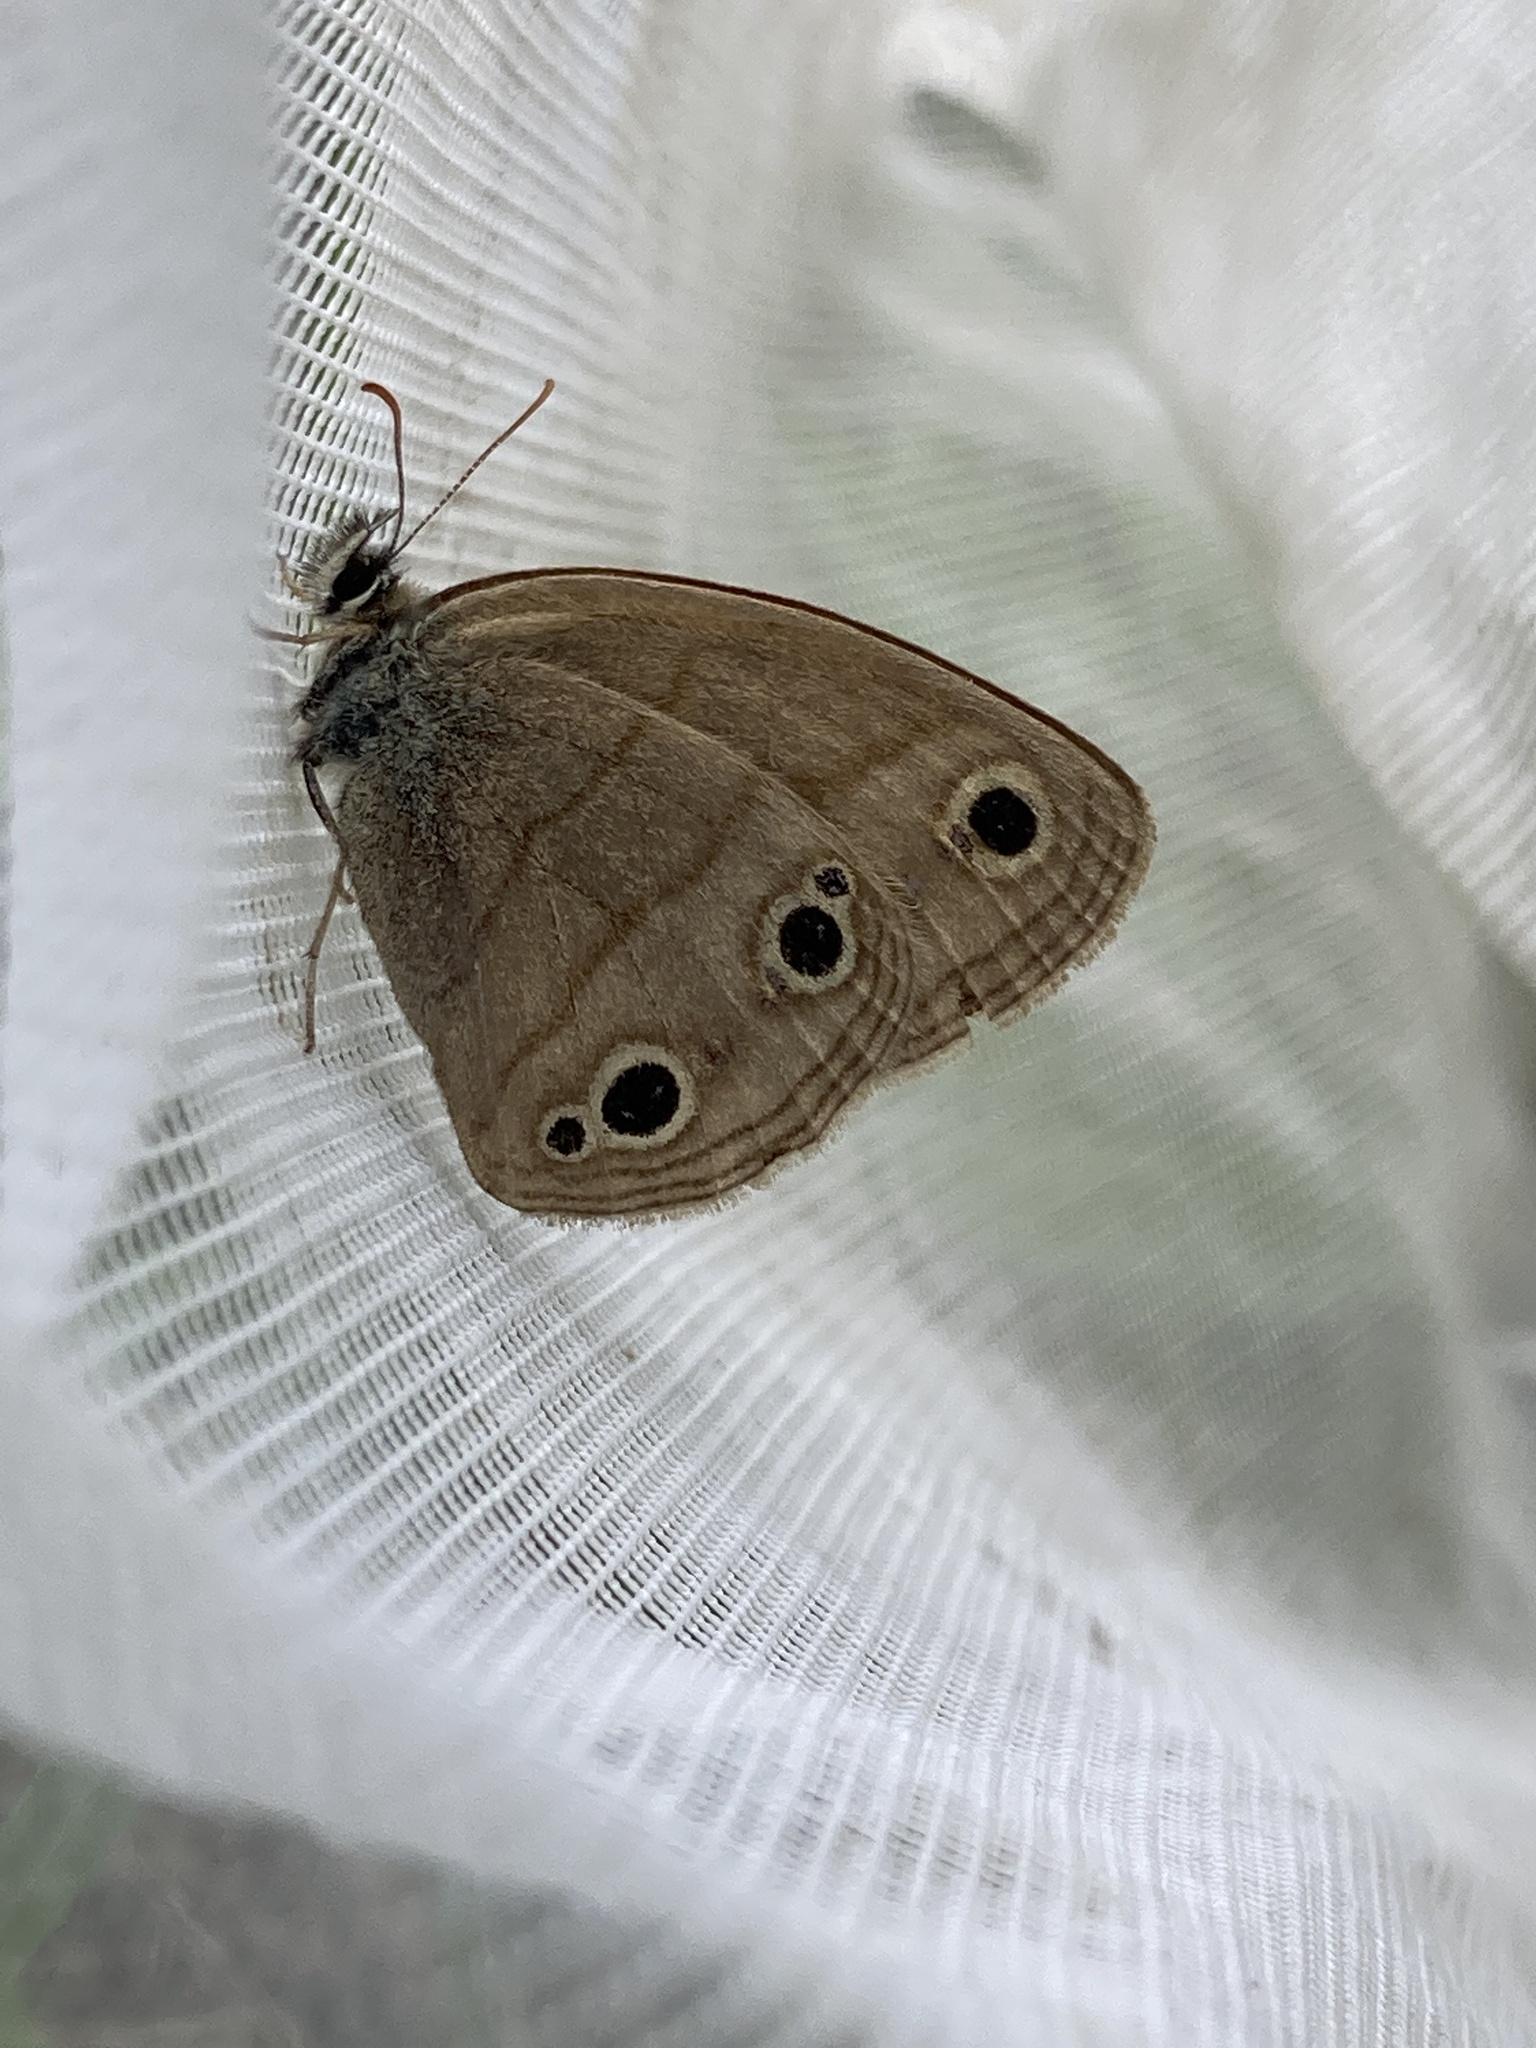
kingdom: Animalia
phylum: Arthropoda
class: Insecta
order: Lepidoptera
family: Nymphalidae
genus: Euptychia
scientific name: Euptychia cymela
